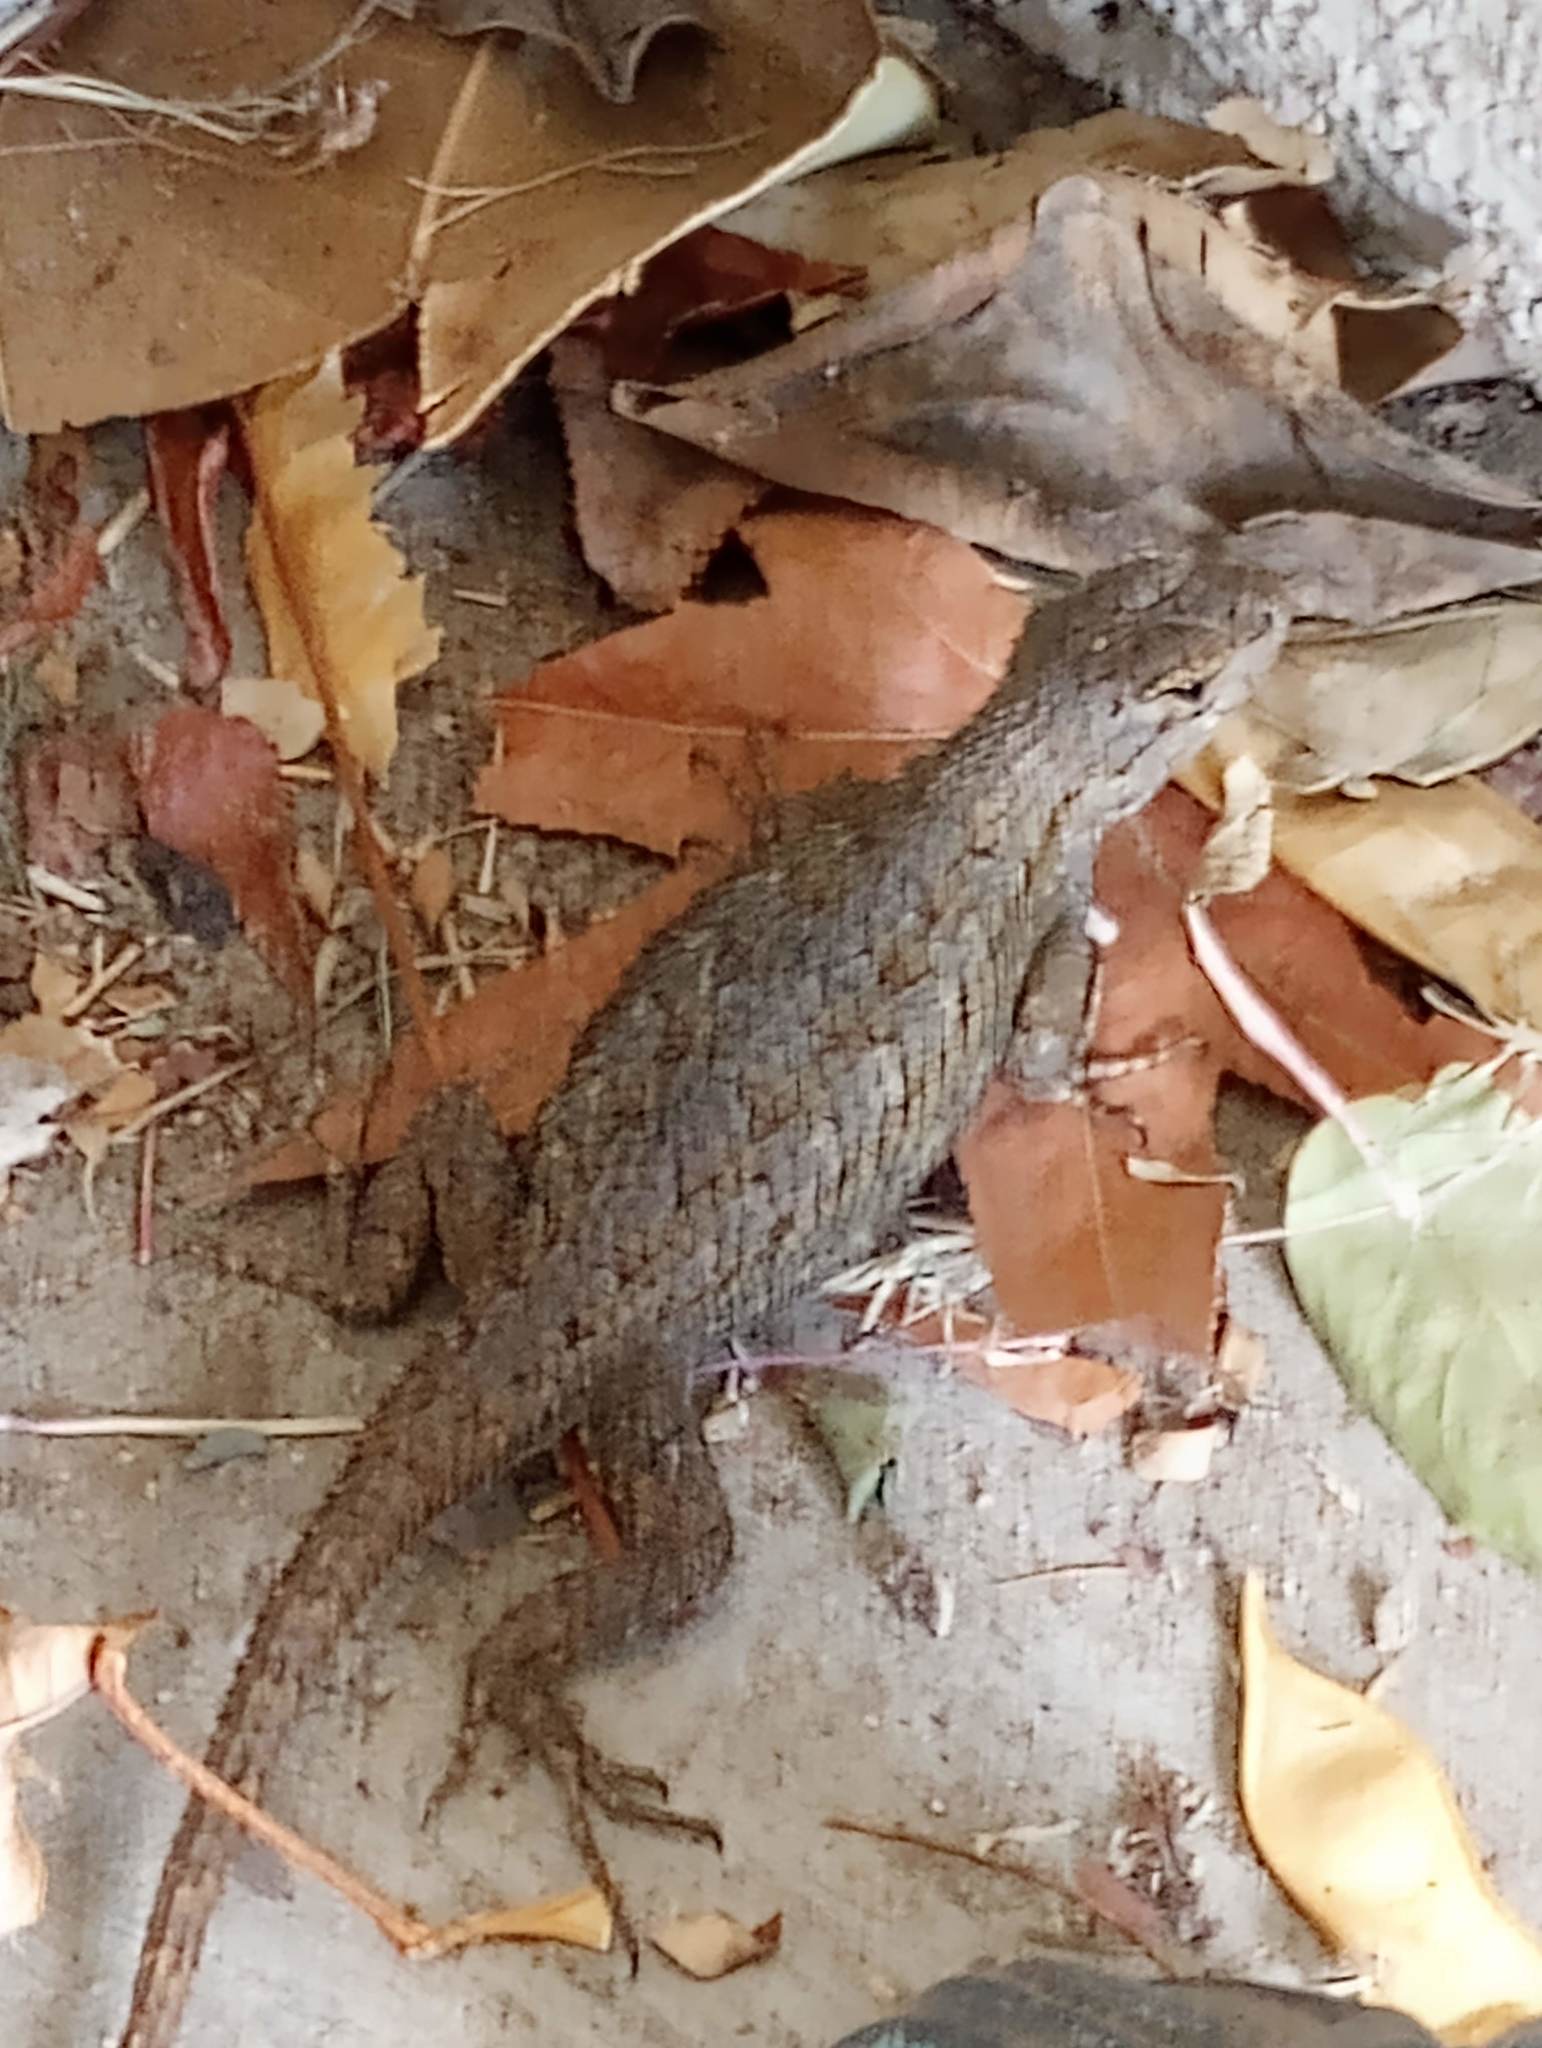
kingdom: Animalia
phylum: Chordata
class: Squamata
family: Phrynosomatidae
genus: Sceloporus
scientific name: Sceloporus occidentalis
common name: Western fence lizard
